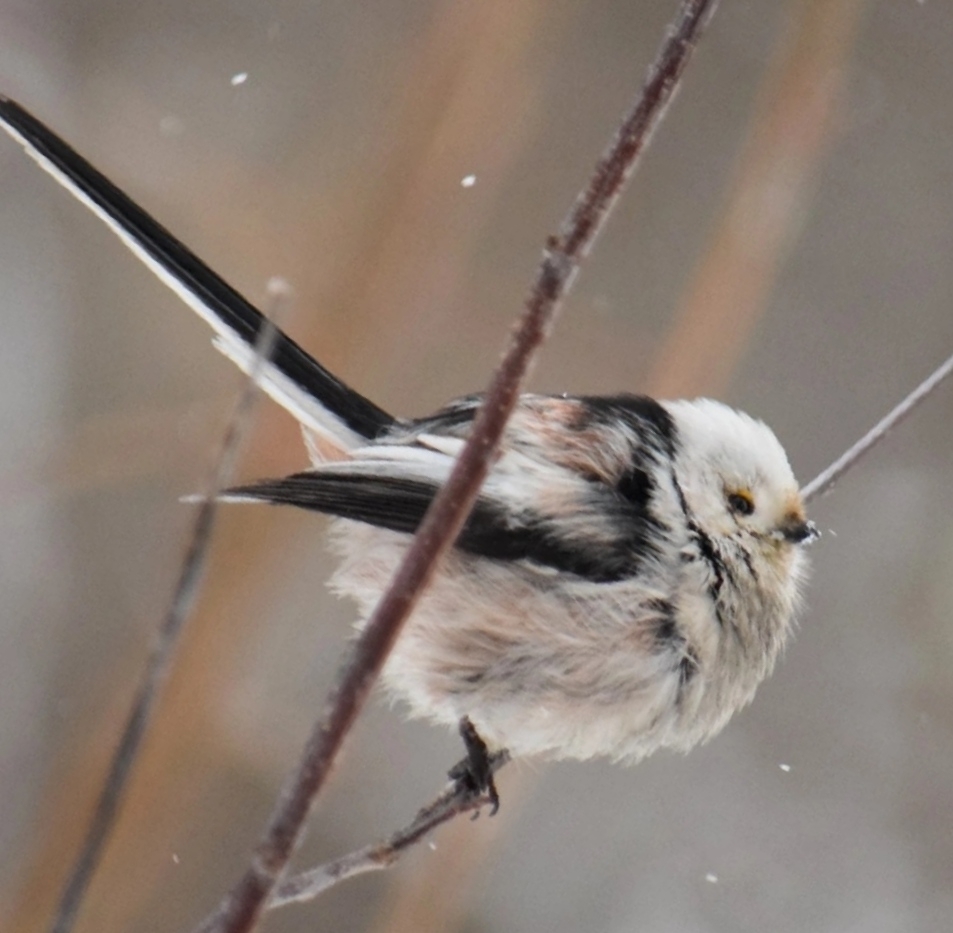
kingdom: Animalia
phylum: Chordata
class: Aves
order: Passeriformes
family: Aegithalidae
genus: Aegithalos
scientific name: Aegithalos caudatus
